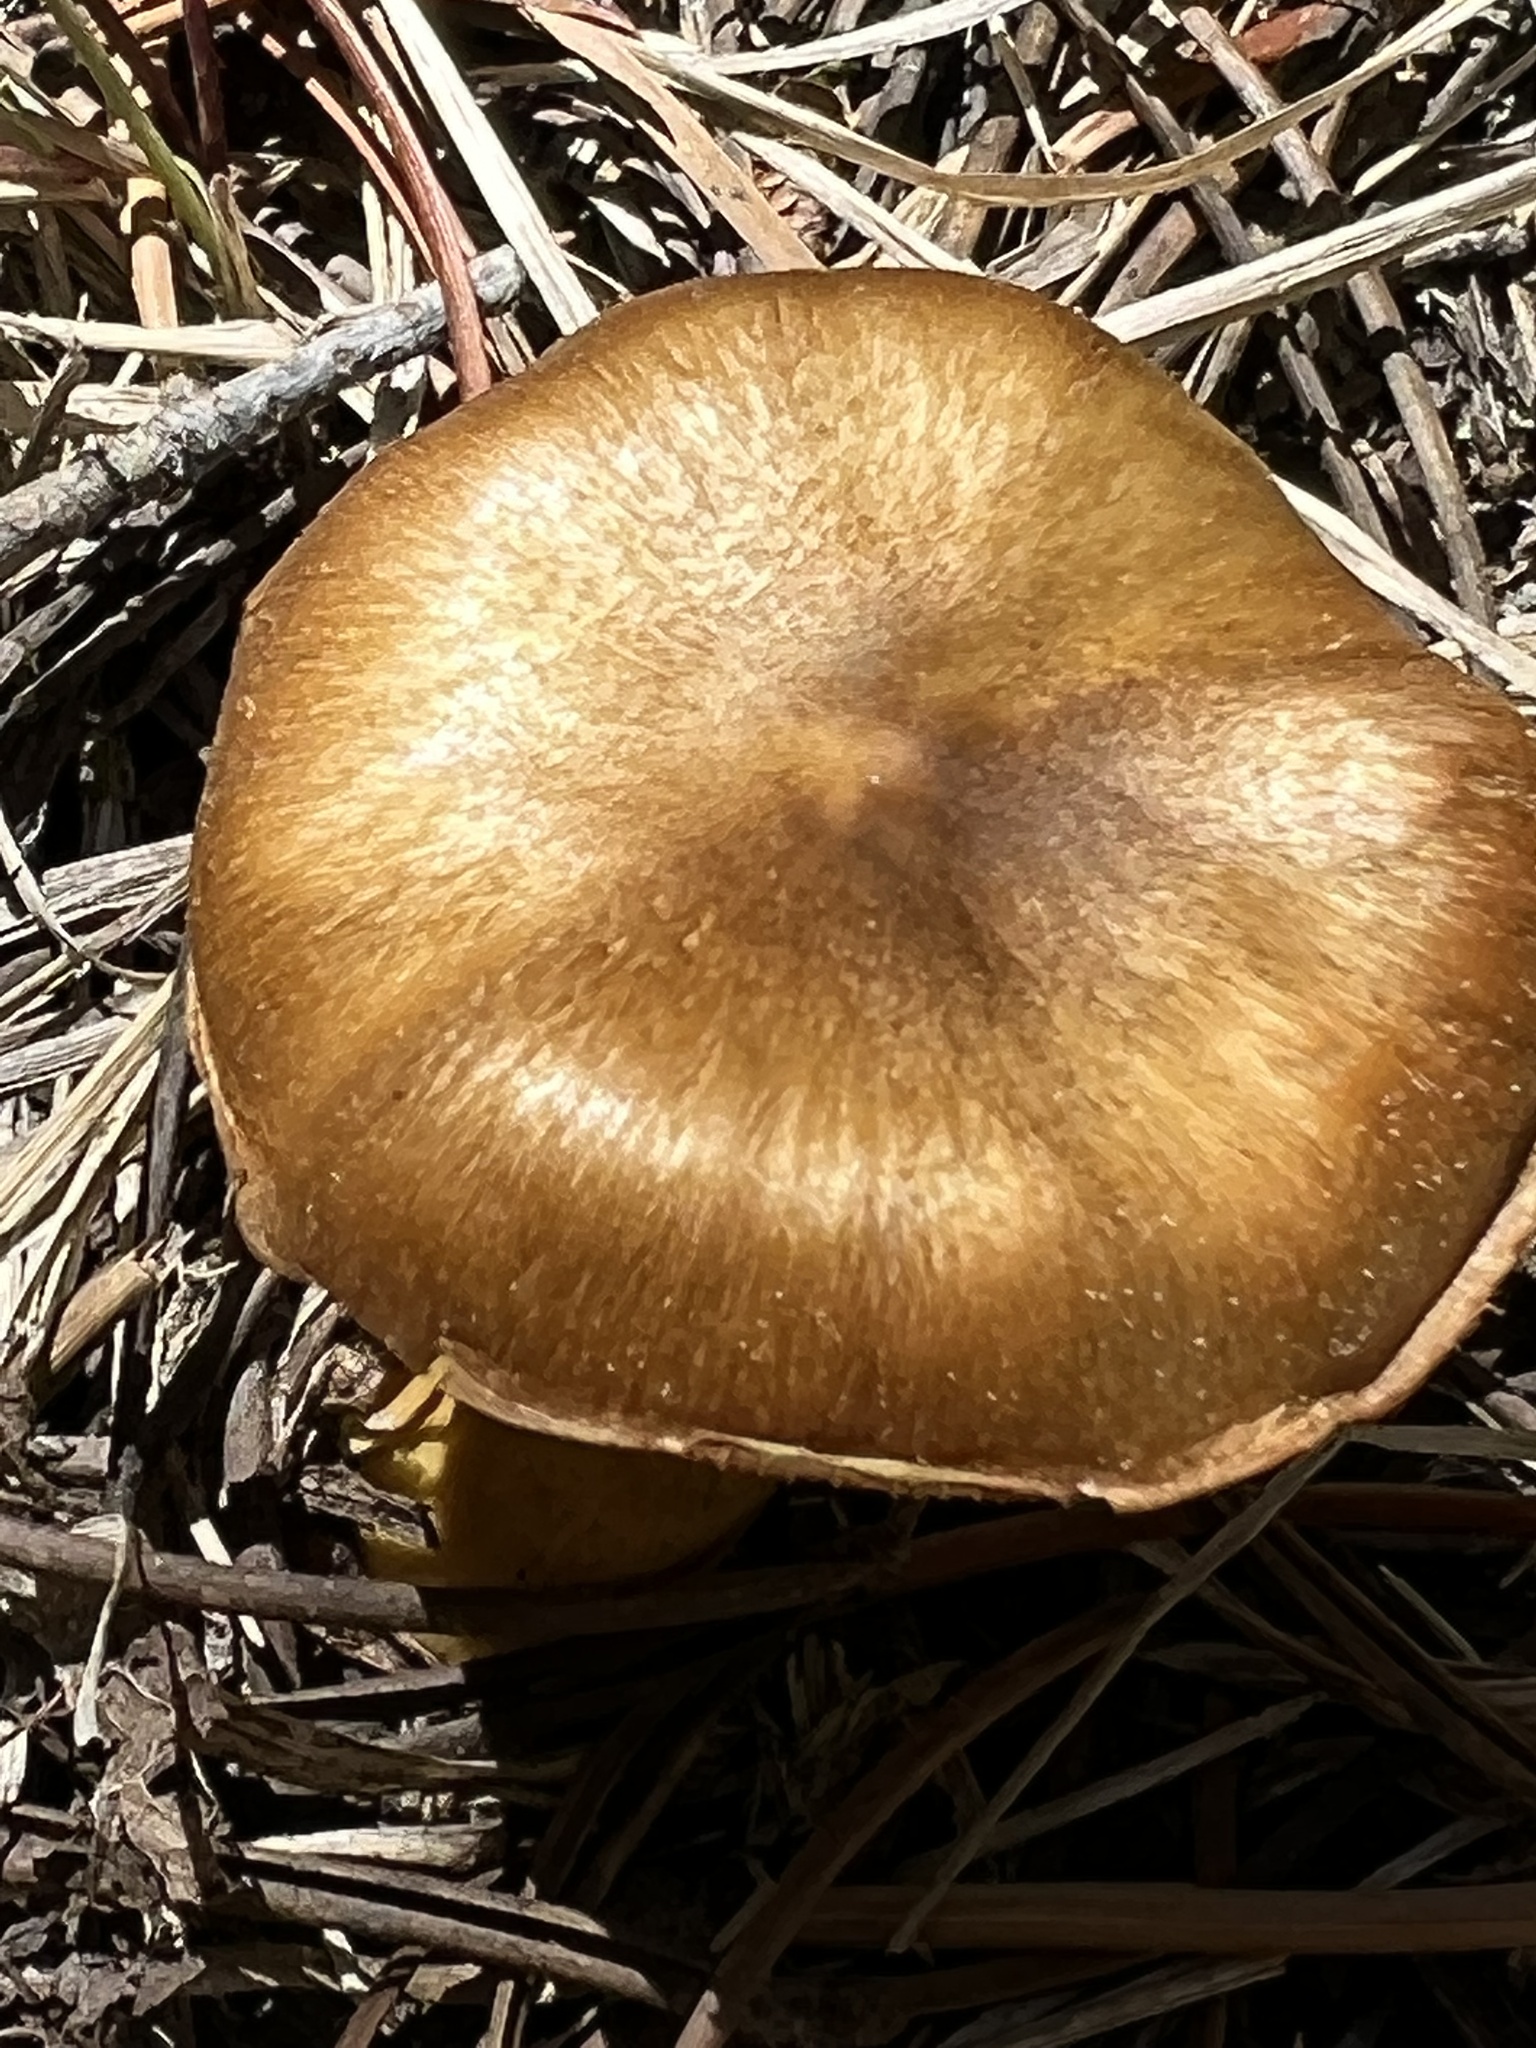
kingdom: Fungi
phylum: Basidiomycota
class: Agaricomycetes
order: Agaricales
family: Hymenogastraceae
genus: Gymnopilus
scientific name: Gymnopilus sapineus
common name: Scaly rustgill
